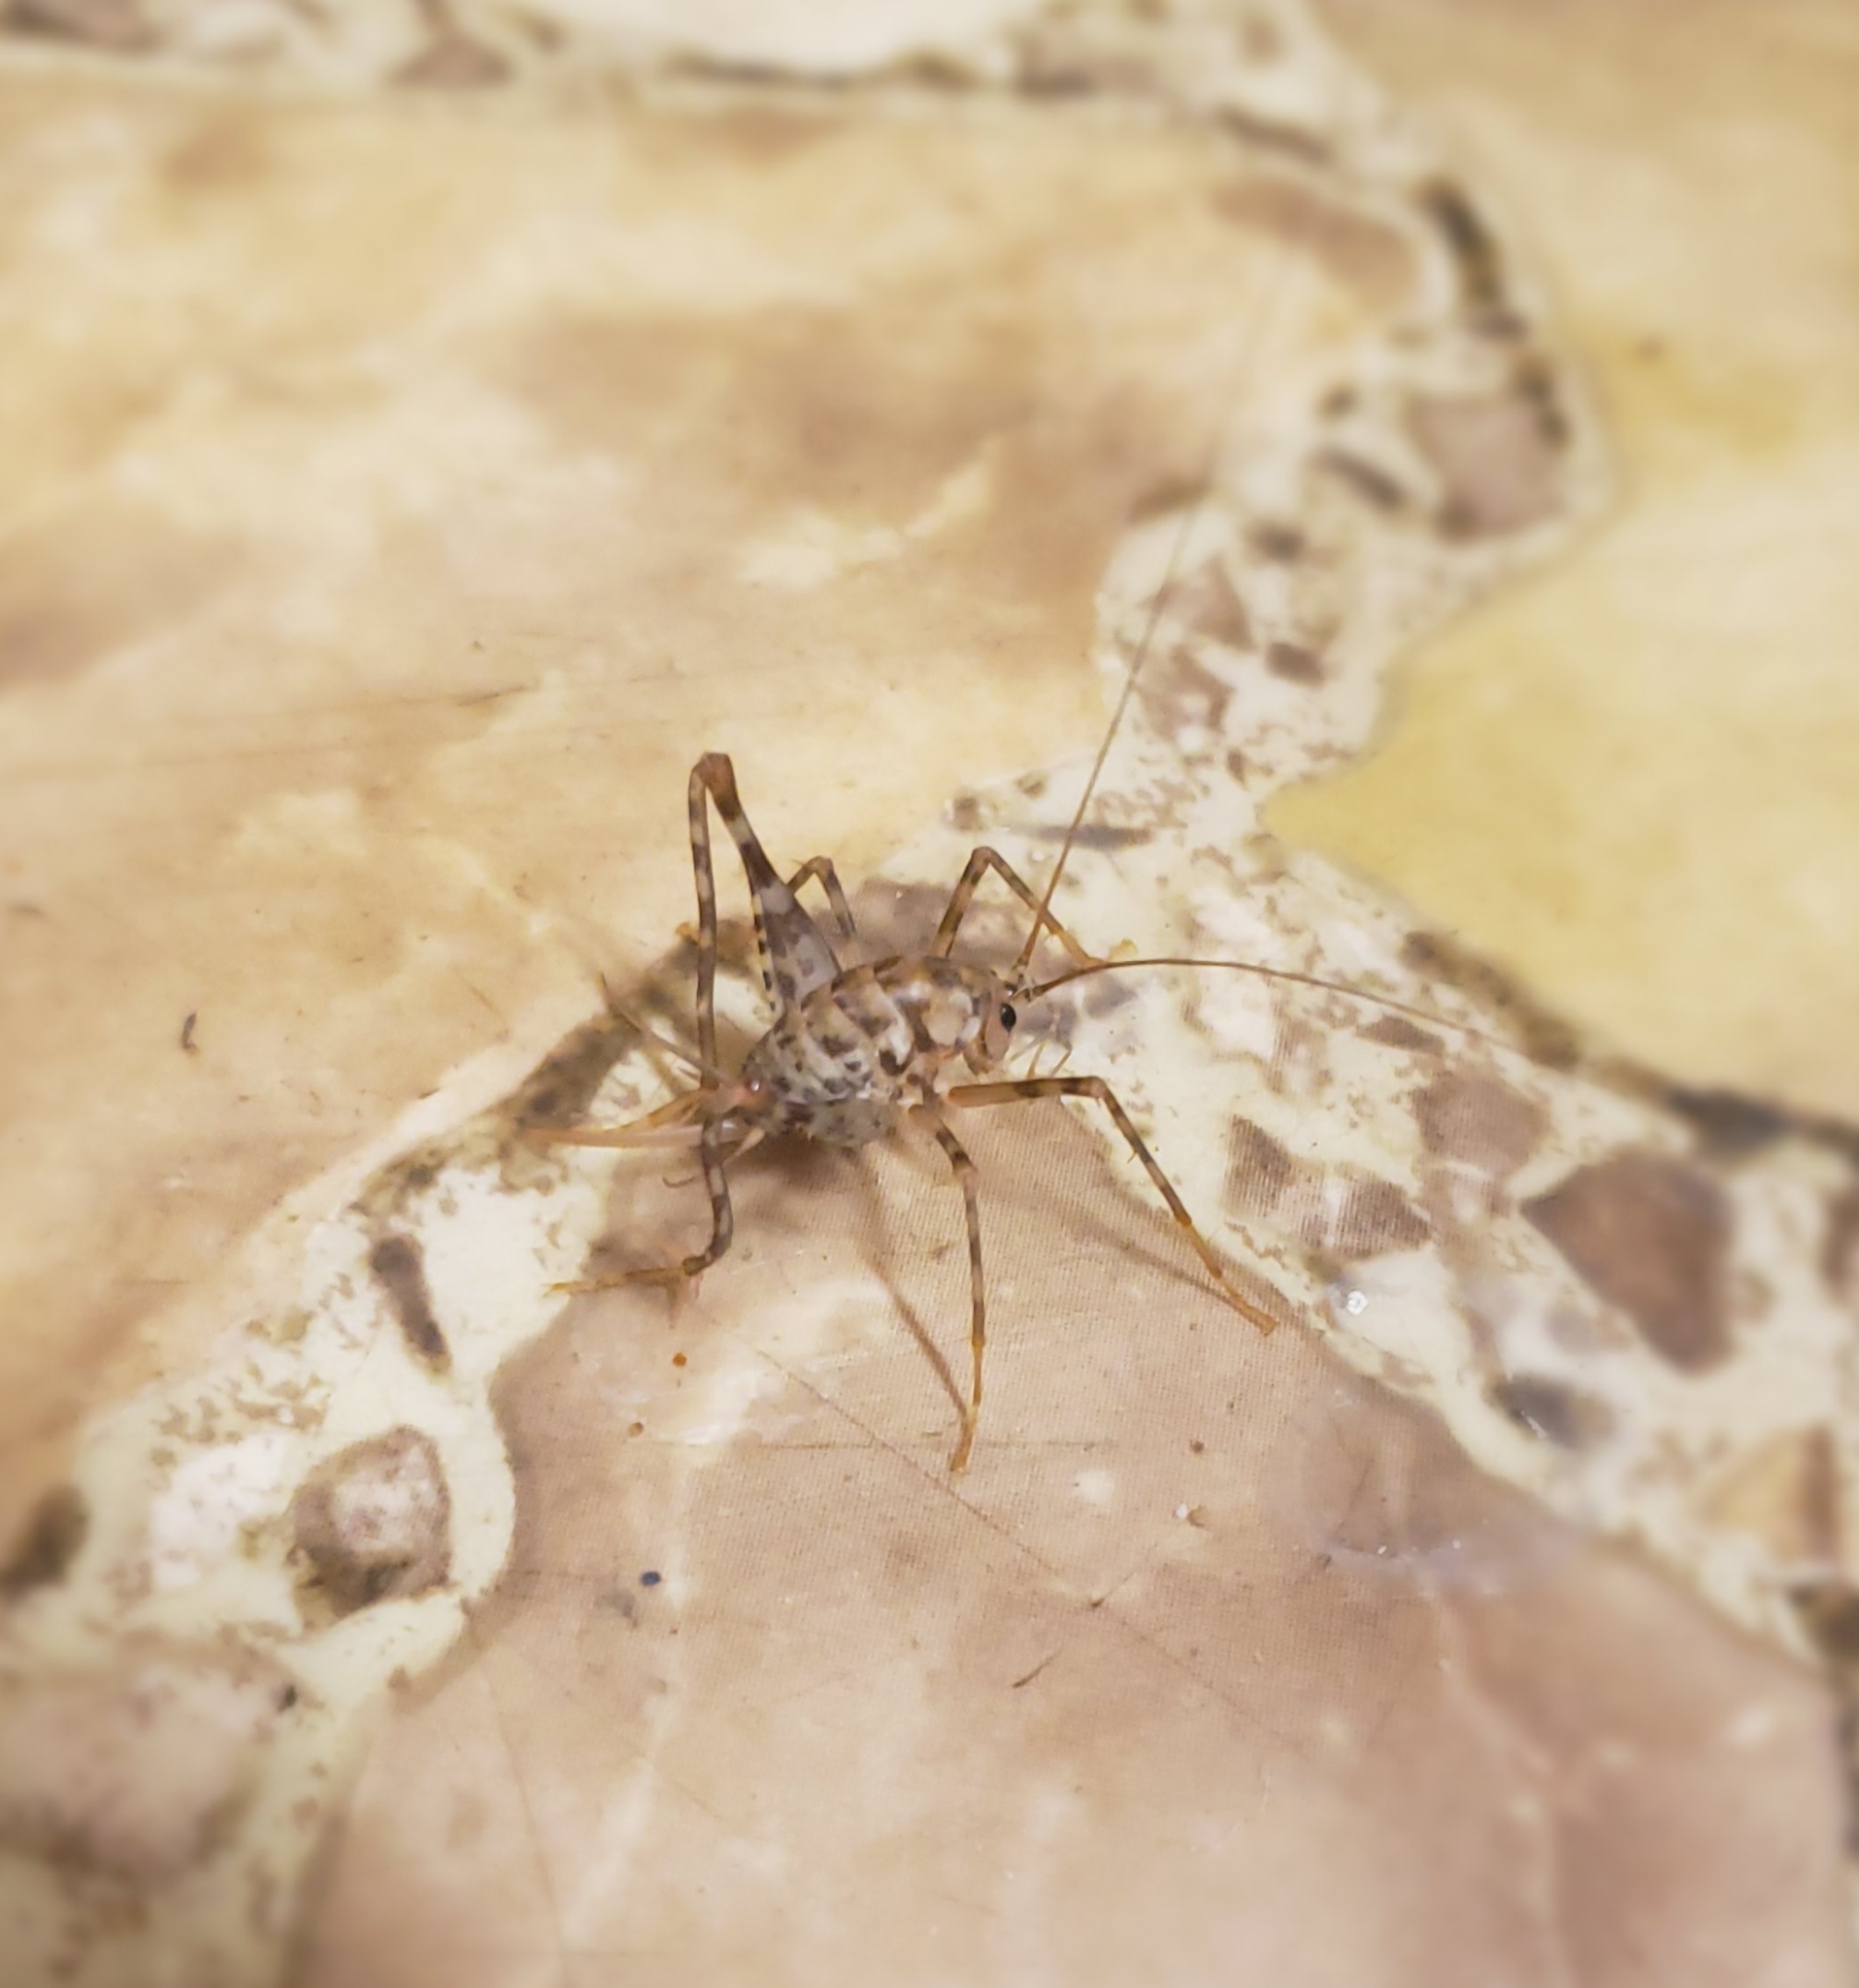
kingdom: Animalia
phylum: Arthropoda
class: Insecta
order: Orthoptera
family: Rhaphidophoridae
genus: Tachycines
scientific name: Tachycines asynamorus
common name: Greenhouse camel cricket
